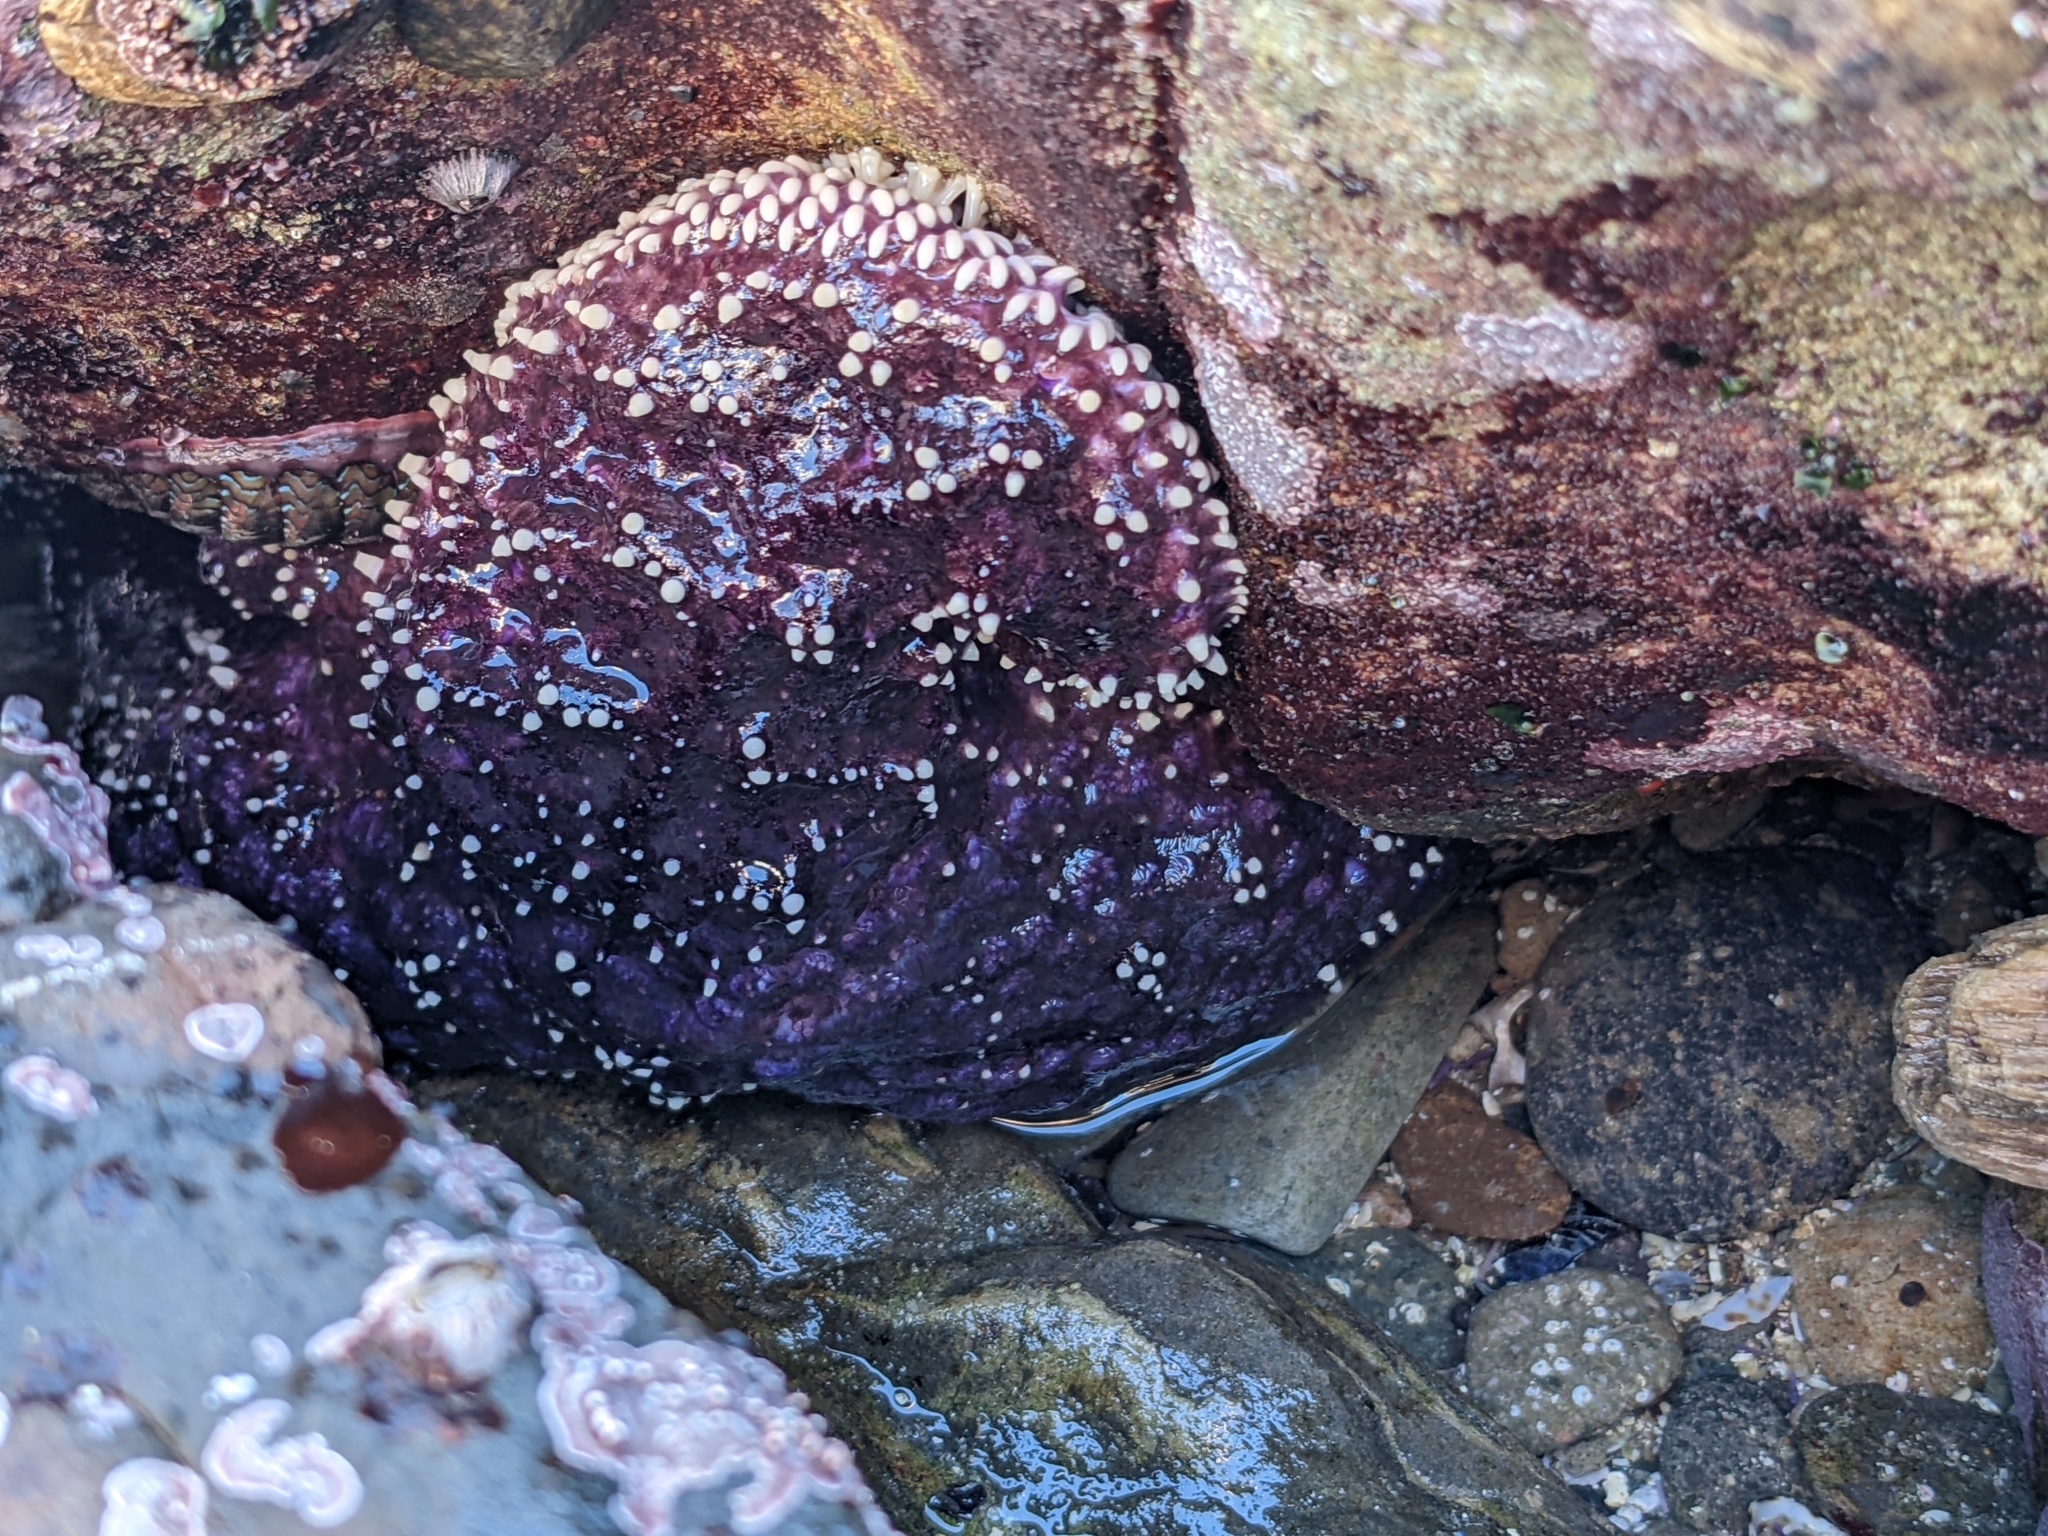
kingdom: Animalia
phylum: Echinodermata
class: Asteroidea
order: Forcipulatida
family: Asteriidae
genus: Pisaster
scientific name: Pisaster ochraceus
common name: Ochre stars
